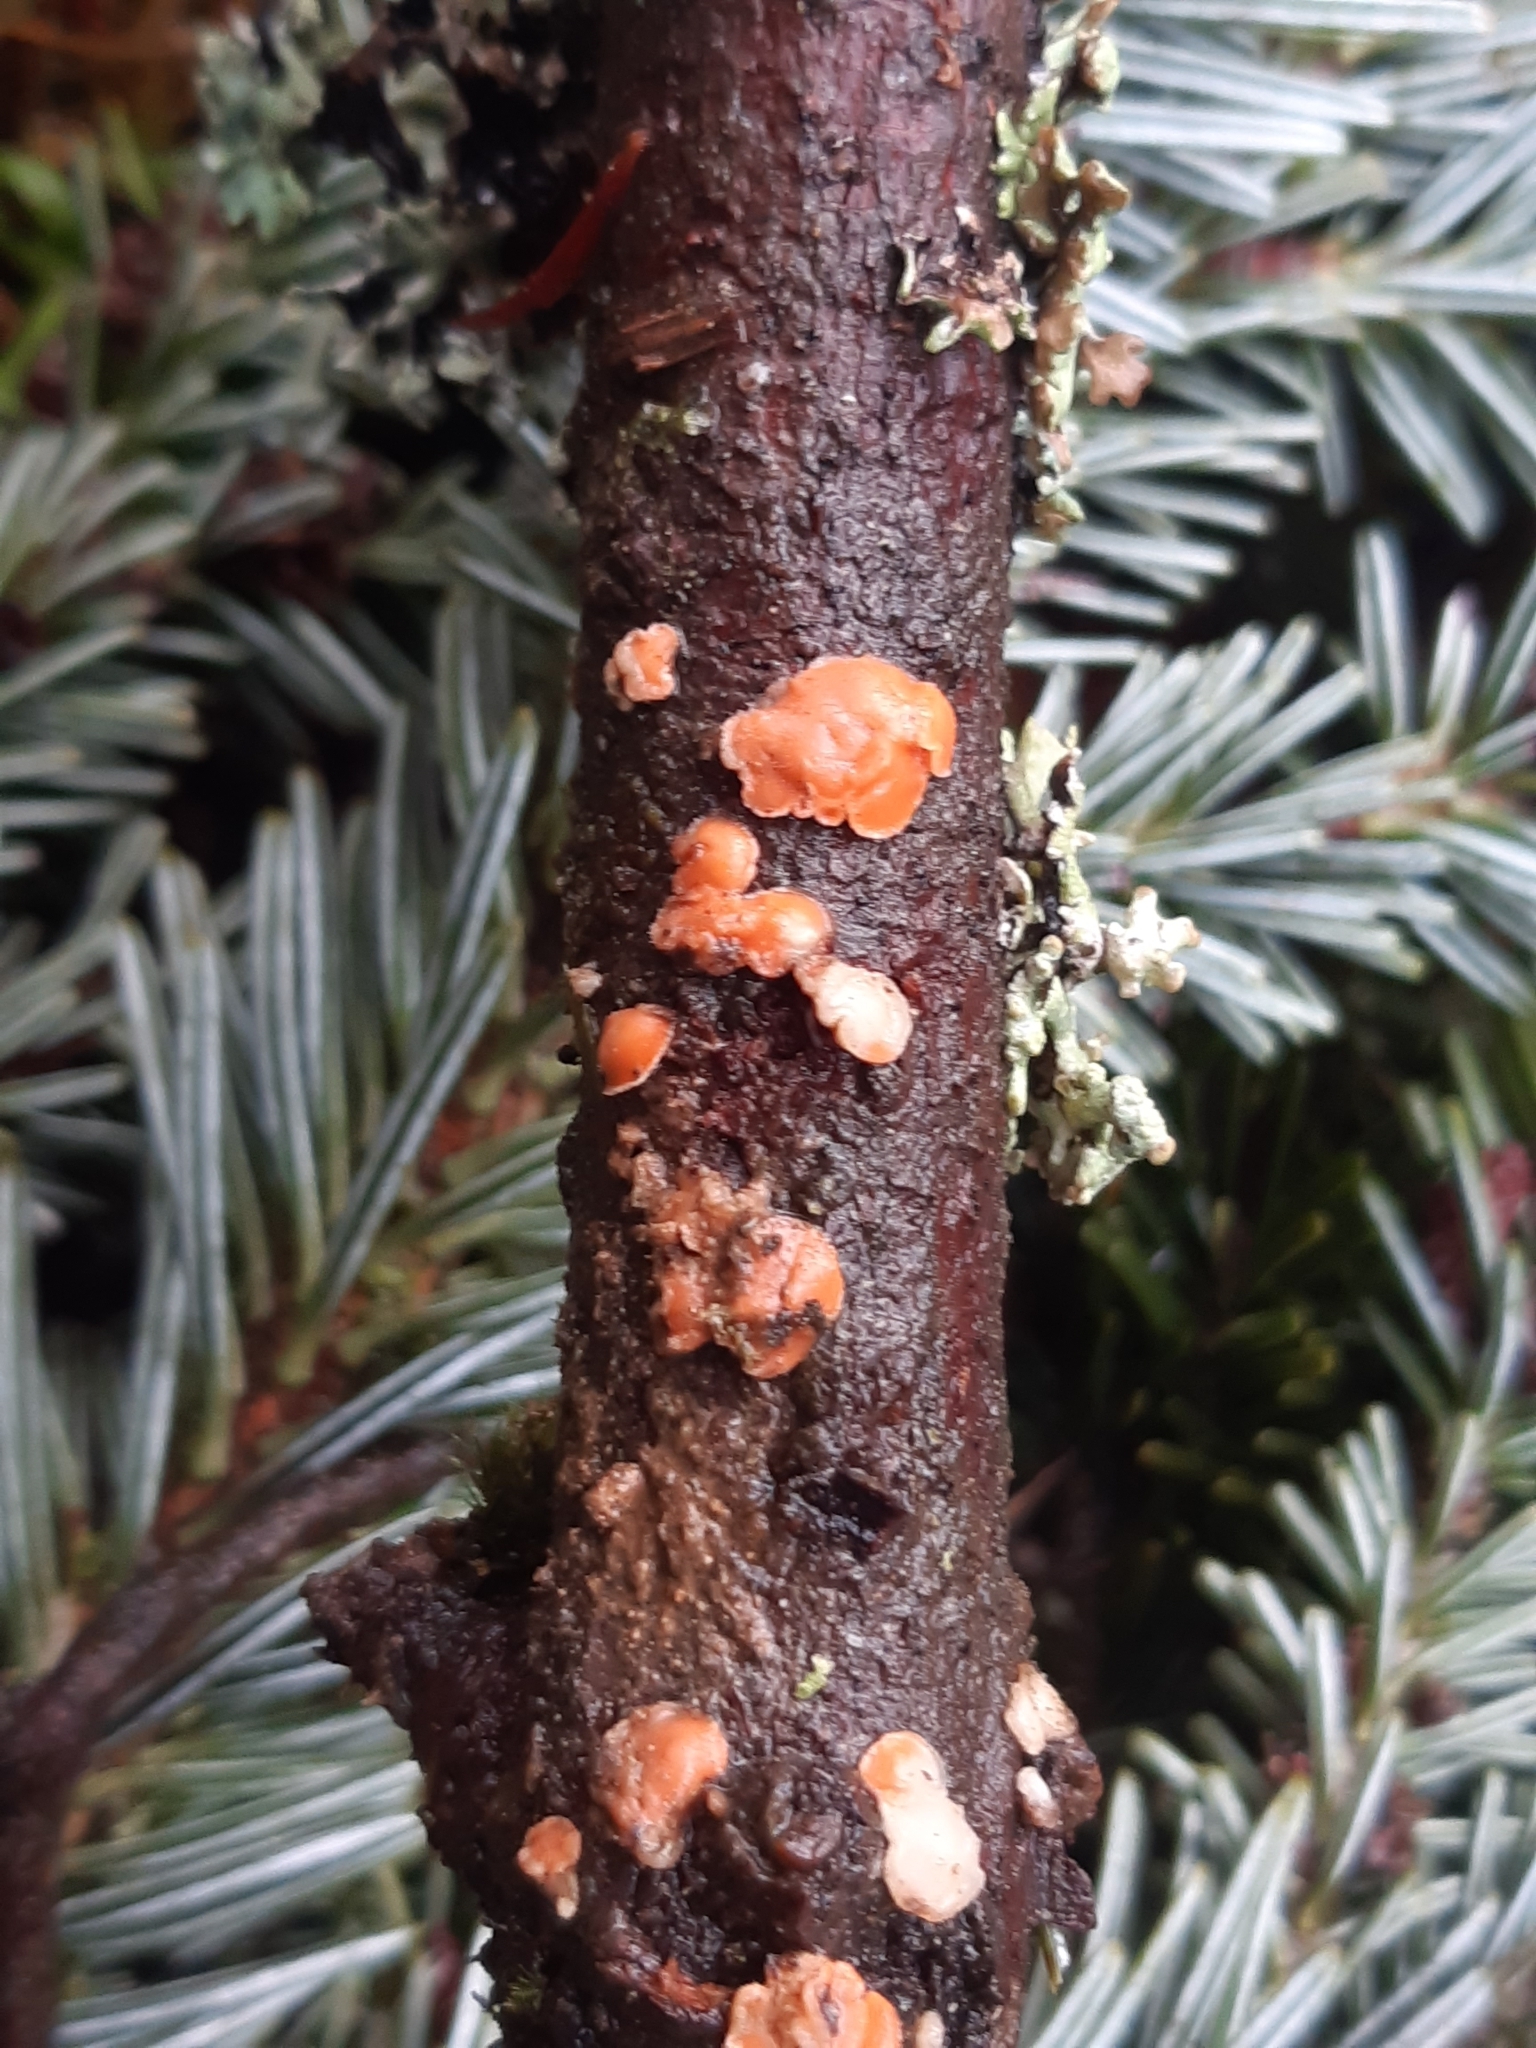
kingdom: Fungi
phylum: Basidiomycota
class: Agaricomycetes
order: Russulales
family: Stereaceae
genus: Aleurodiscus
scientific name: Aleurodiscus amorphus
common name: Orange discus
